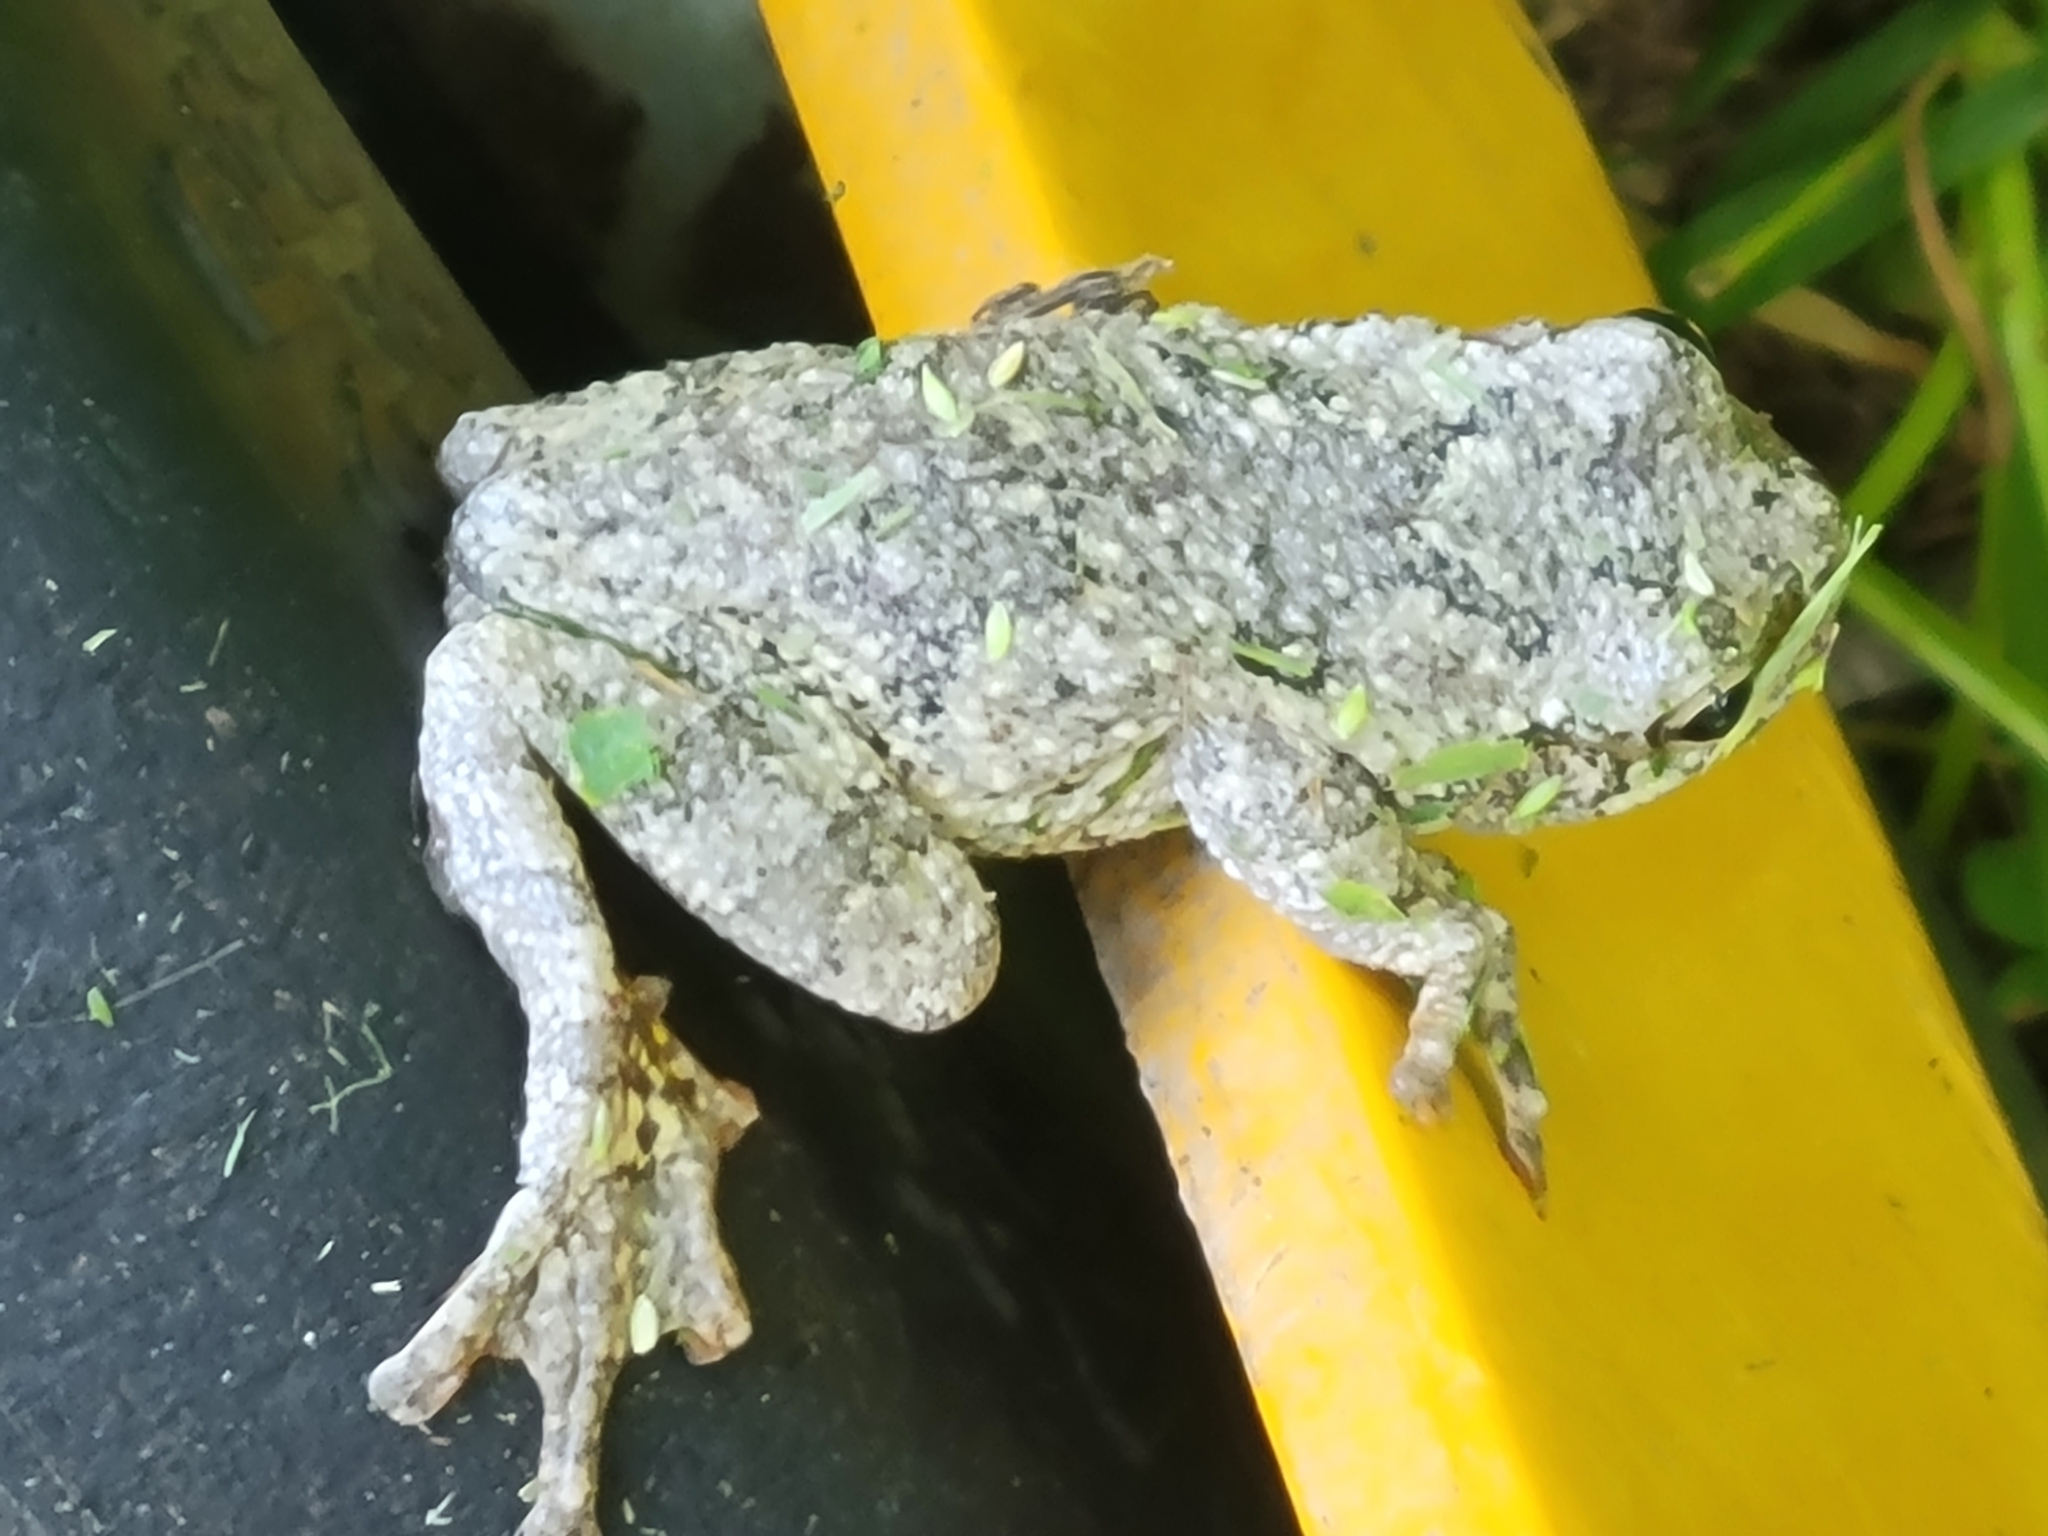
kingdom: Animalia
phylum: Chordata
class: Amphibia
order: Anura
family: Hylidae
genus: Dryophytes
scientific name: Dryophytes chrysoscelis
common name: Cope's gray treefrog
